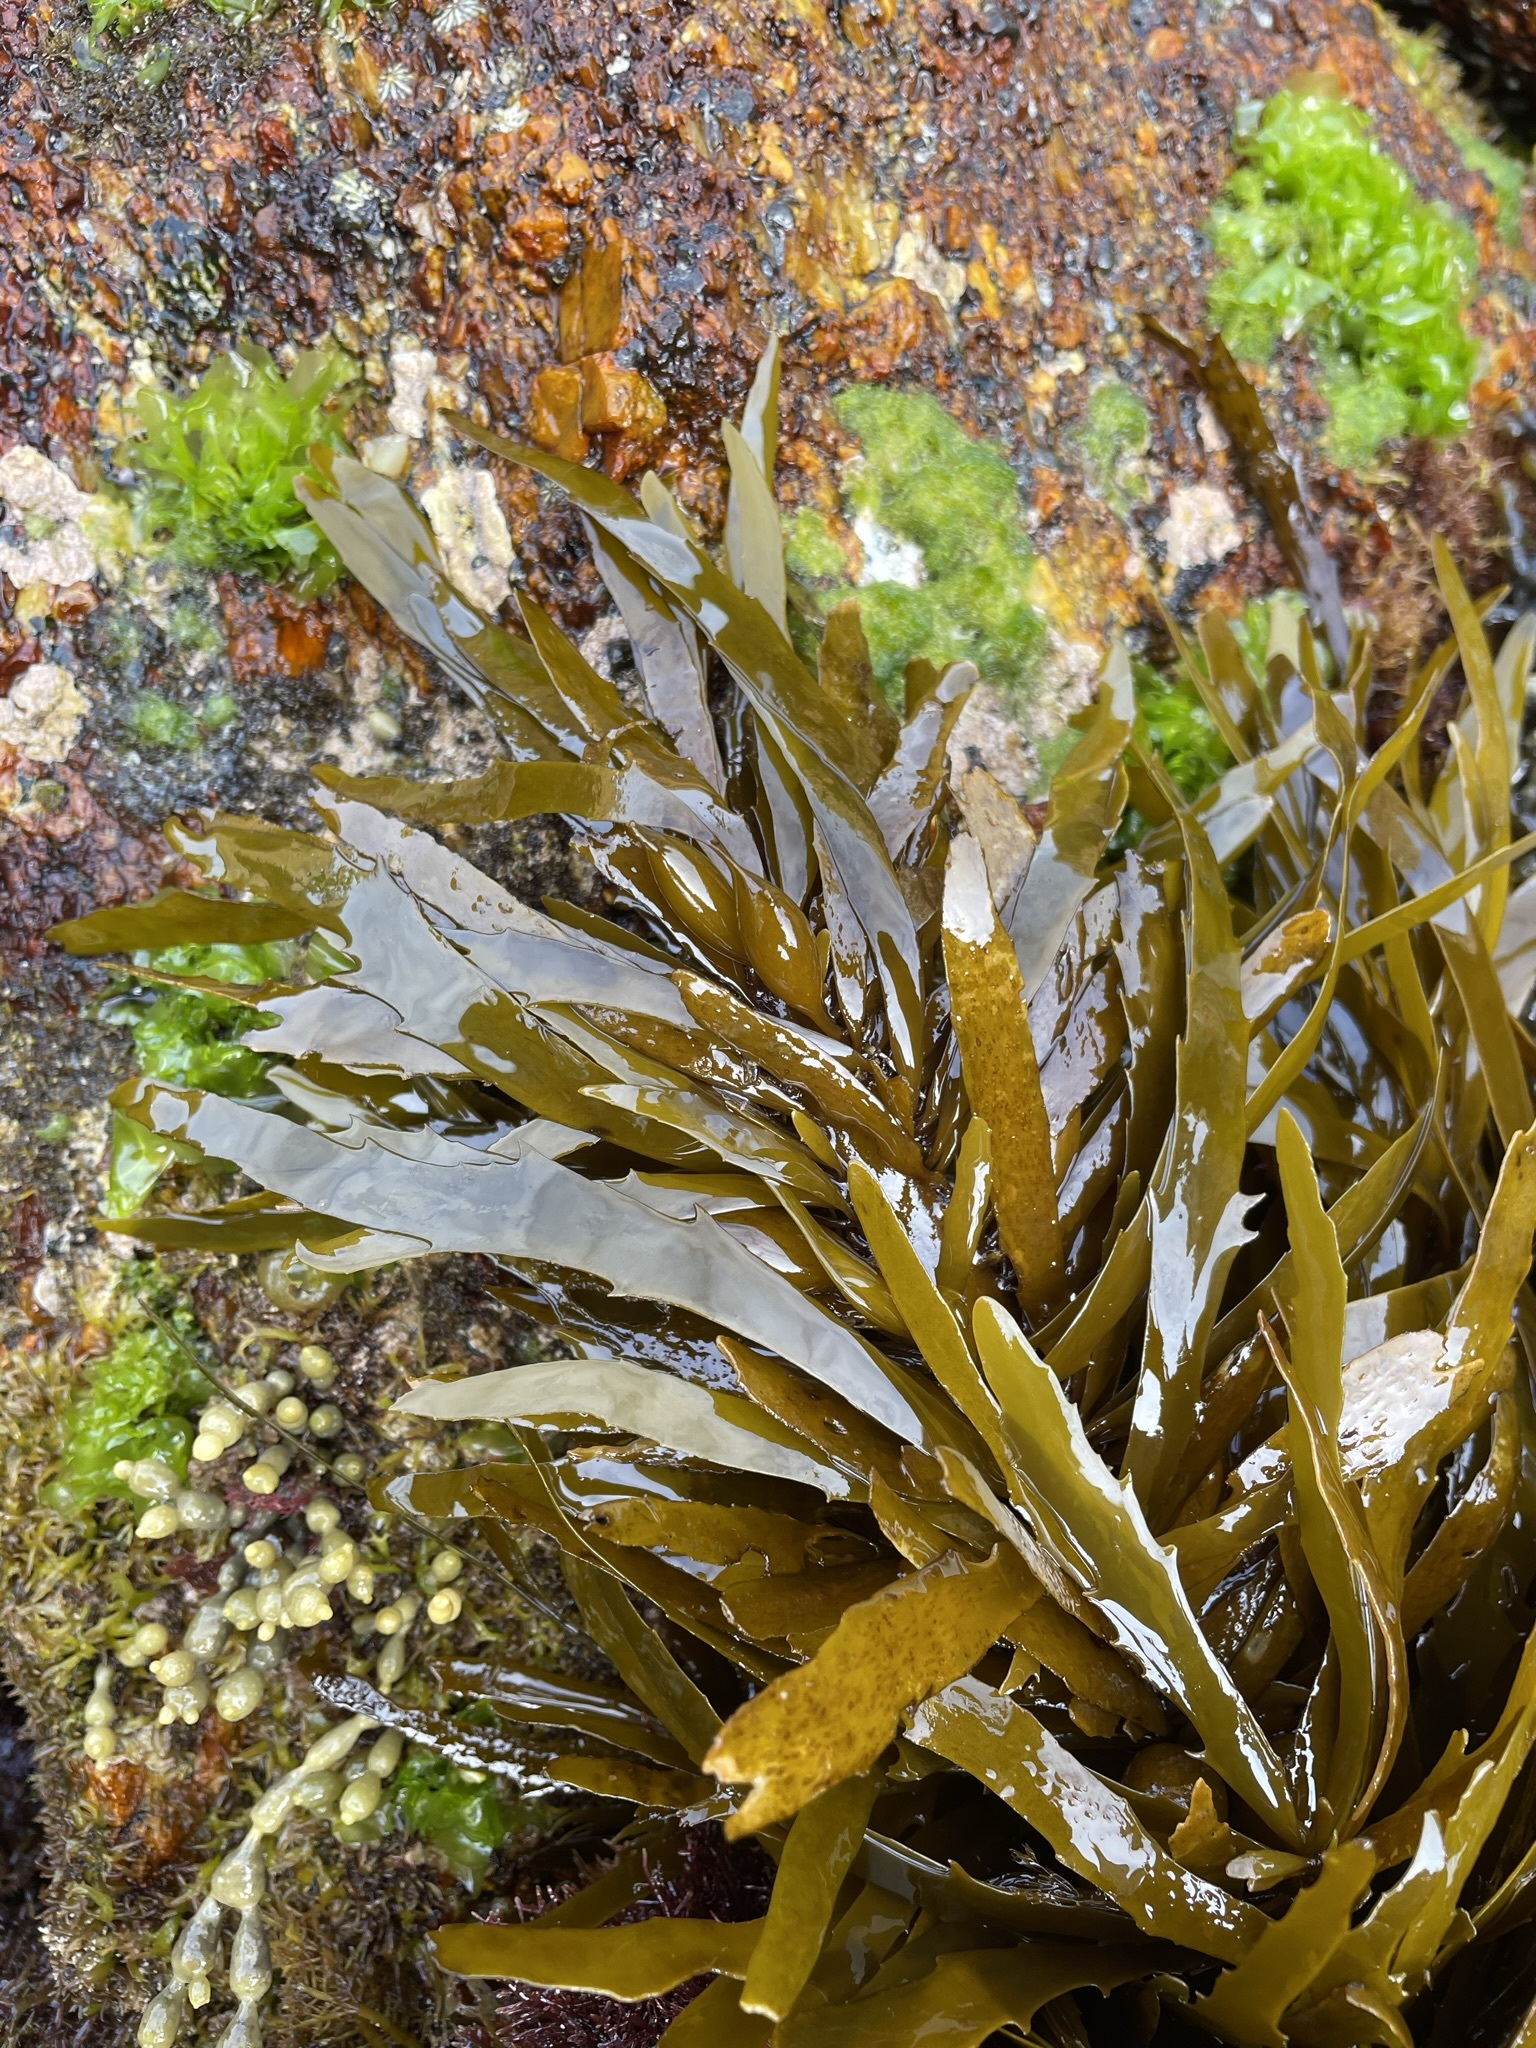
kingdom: Chromista
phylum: Ochrophyta
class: Phaeophyceae
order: Fucales
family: Seirococcaceae
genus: Phyllospora
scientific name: Phyllospora
